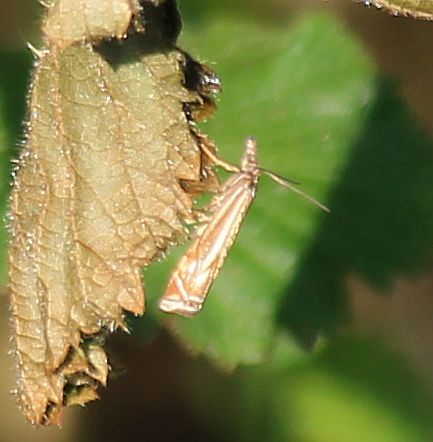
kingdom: Animalia
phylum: Arthropoda
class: Insecta
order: Lepidoptera
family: Crambidae
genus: Crambus
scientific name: Crambus nemorella
